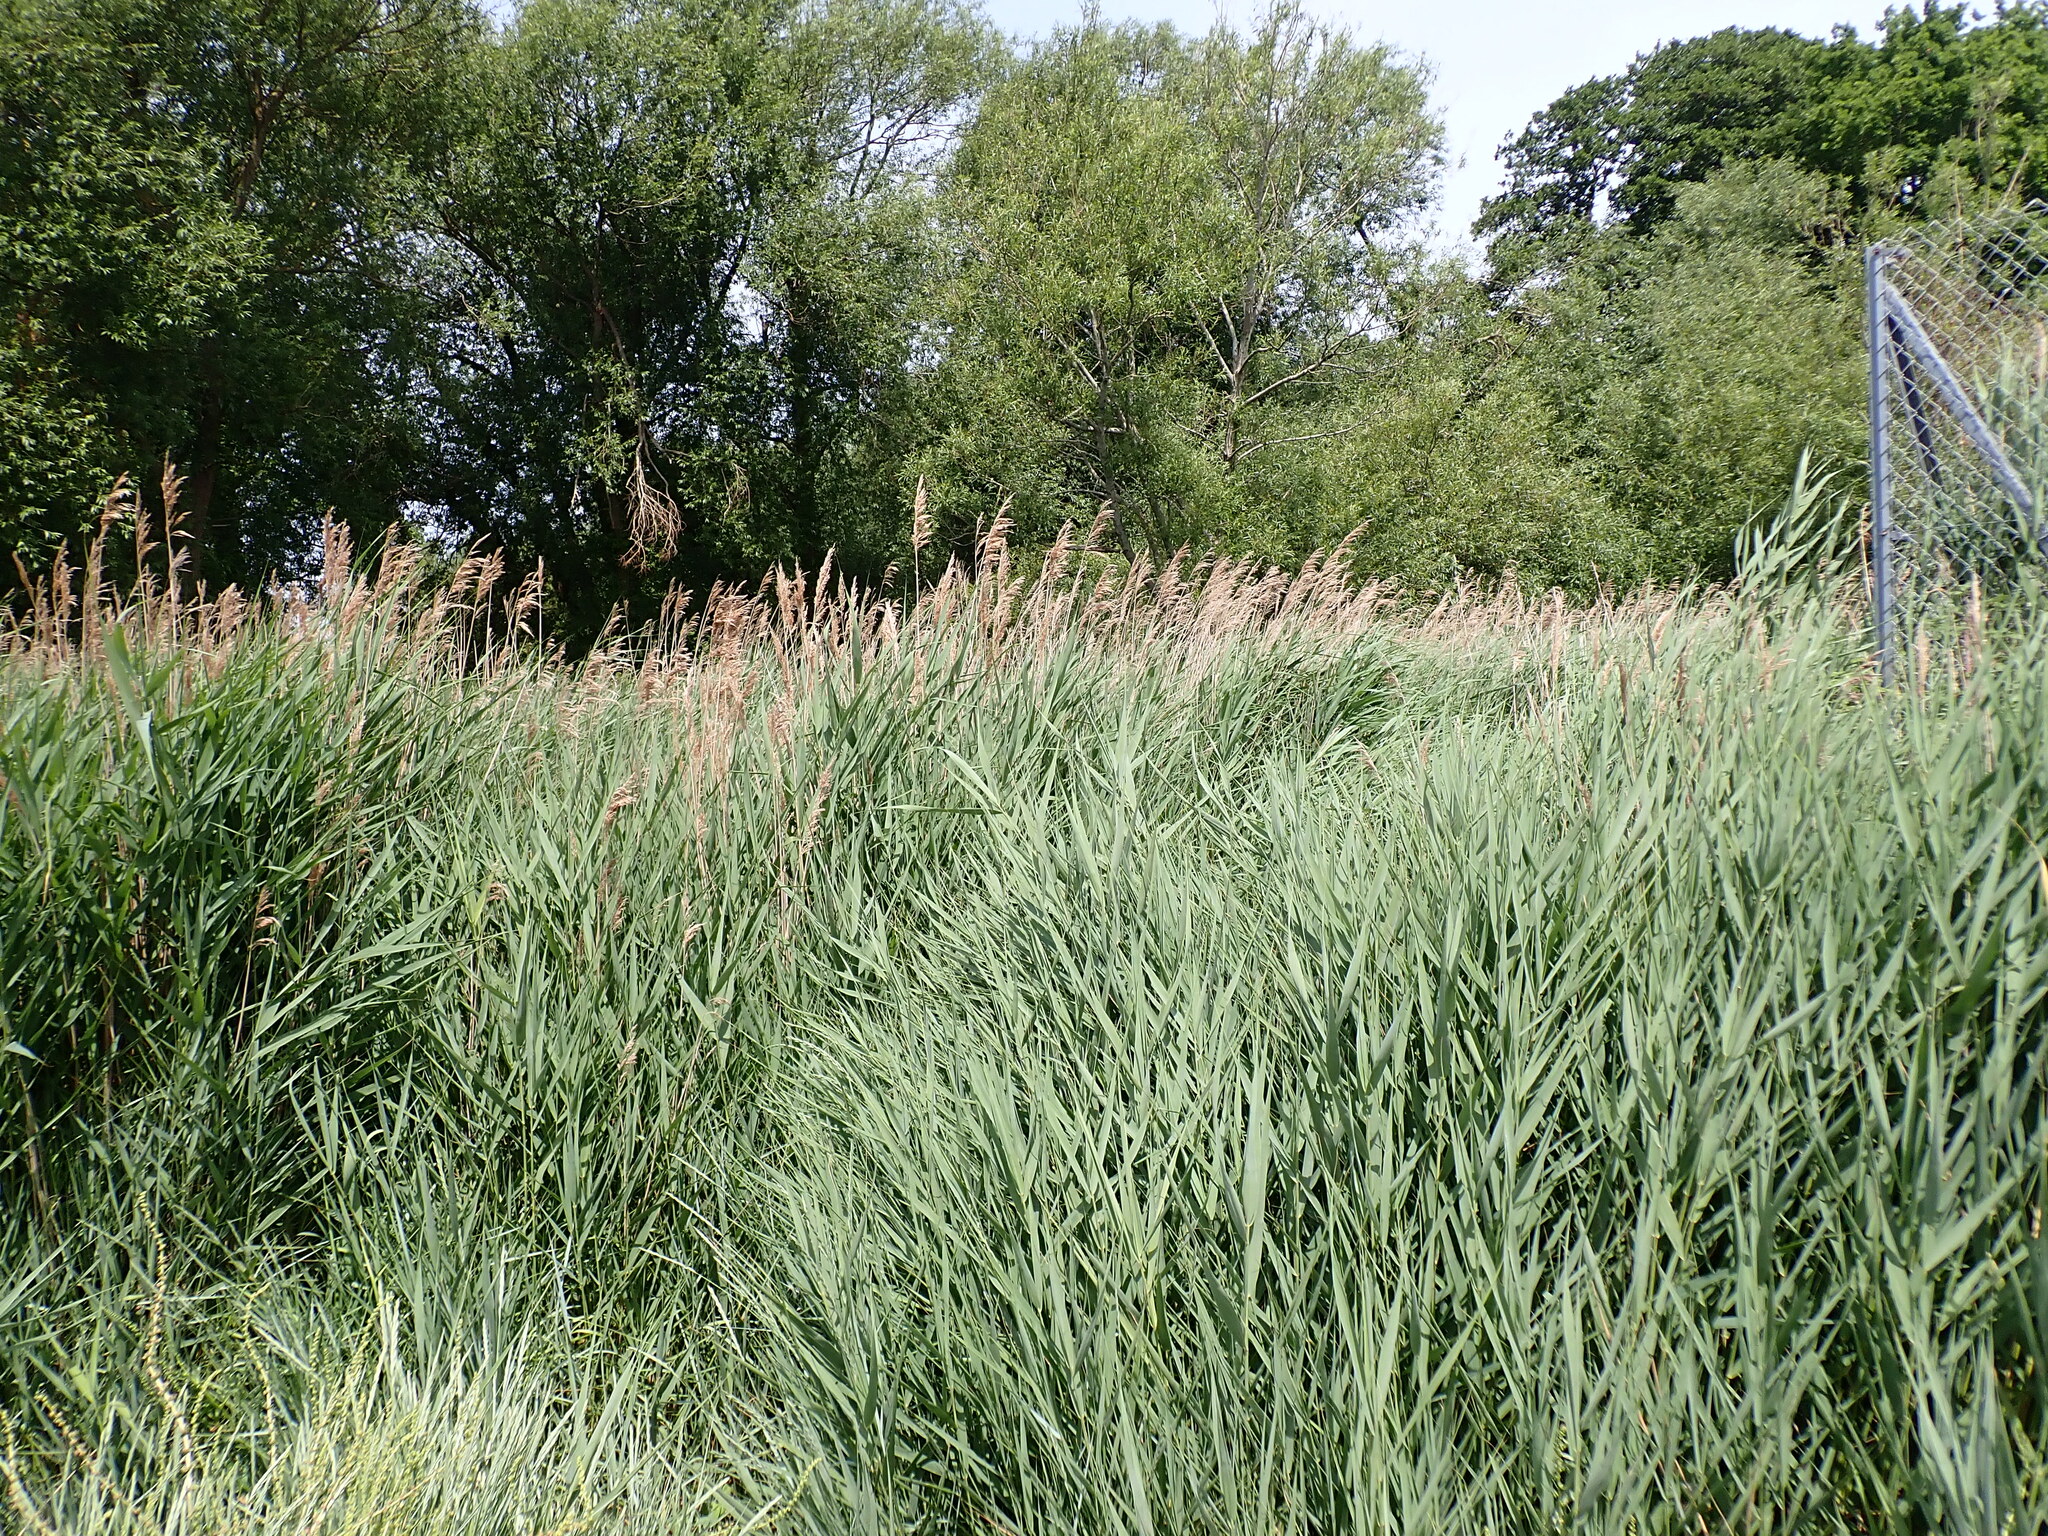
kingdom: Plantae
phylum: Tracheophyta
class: Liliopsida
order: Poales
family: Poaceae
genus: Phragmites
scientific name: Phragmites australis
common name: Common reed
